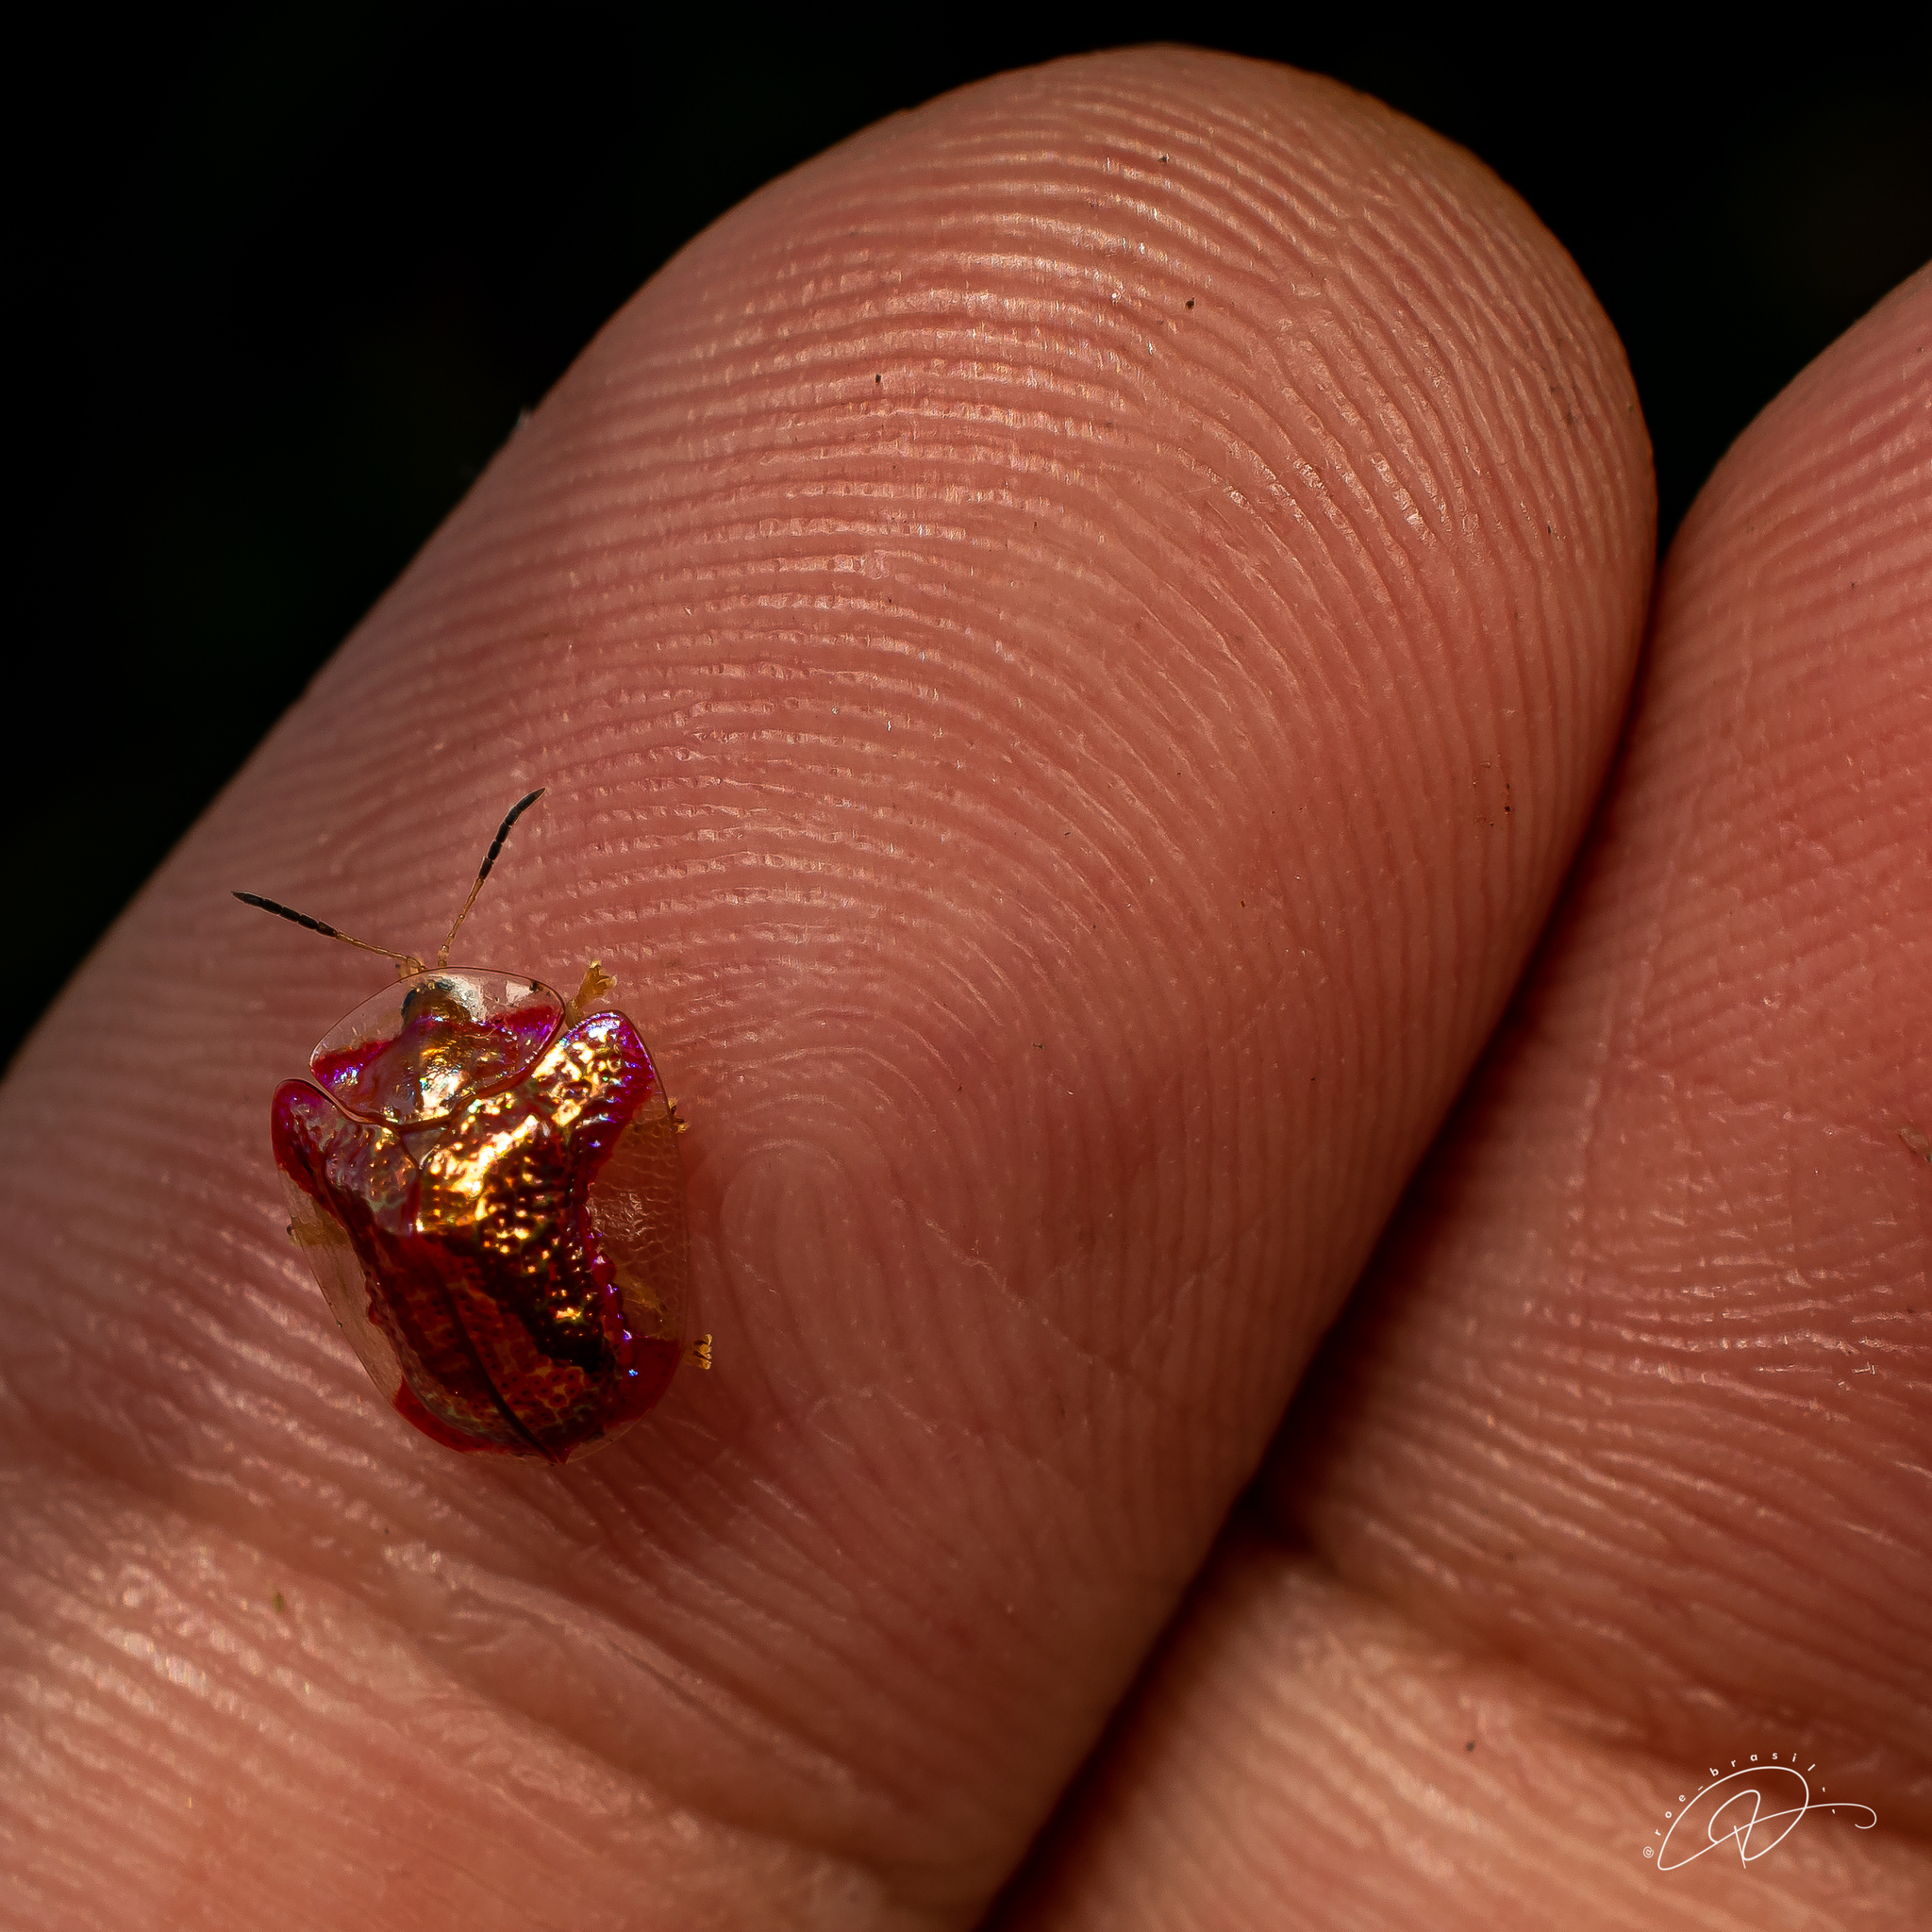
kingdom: Animalia
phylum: Arthropoda
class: Insecta
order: Coleoptera
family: Chrysomelidae
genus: Charidotella
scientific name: Charidotella rubicunda
